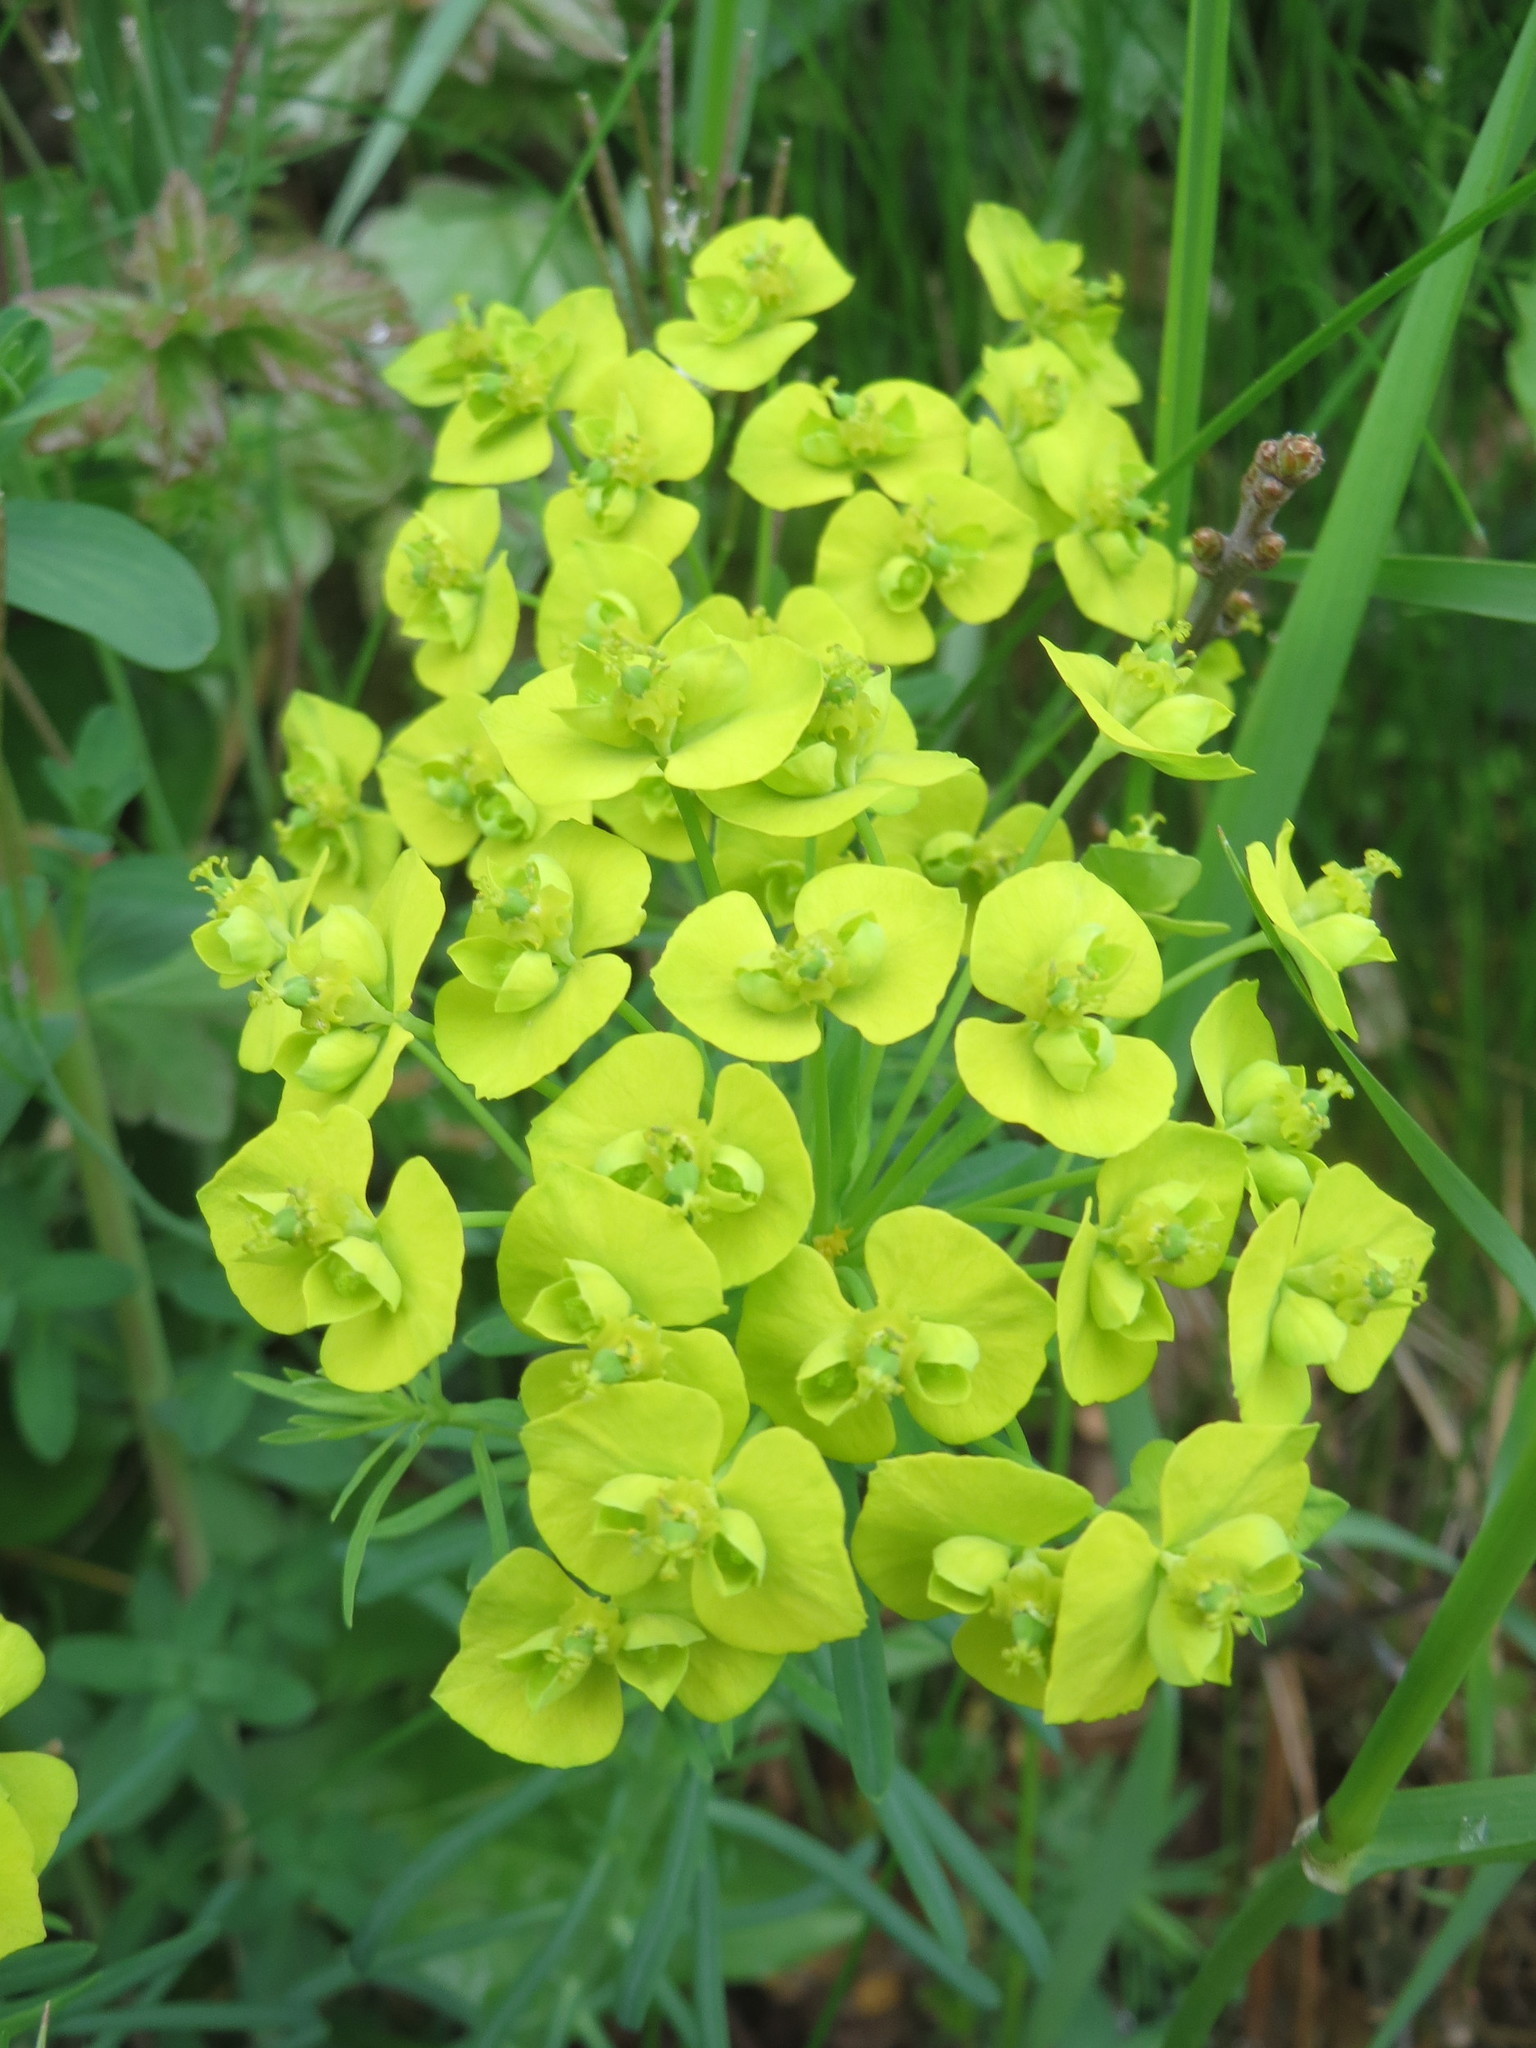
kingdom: Plantae
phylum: Tracheophyta
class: Magnoliopsida
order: Malpighiales
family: Euphorbiaceae
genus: Euphorbia
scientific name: Euphorbia cyparissias
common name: Cypress spurge
